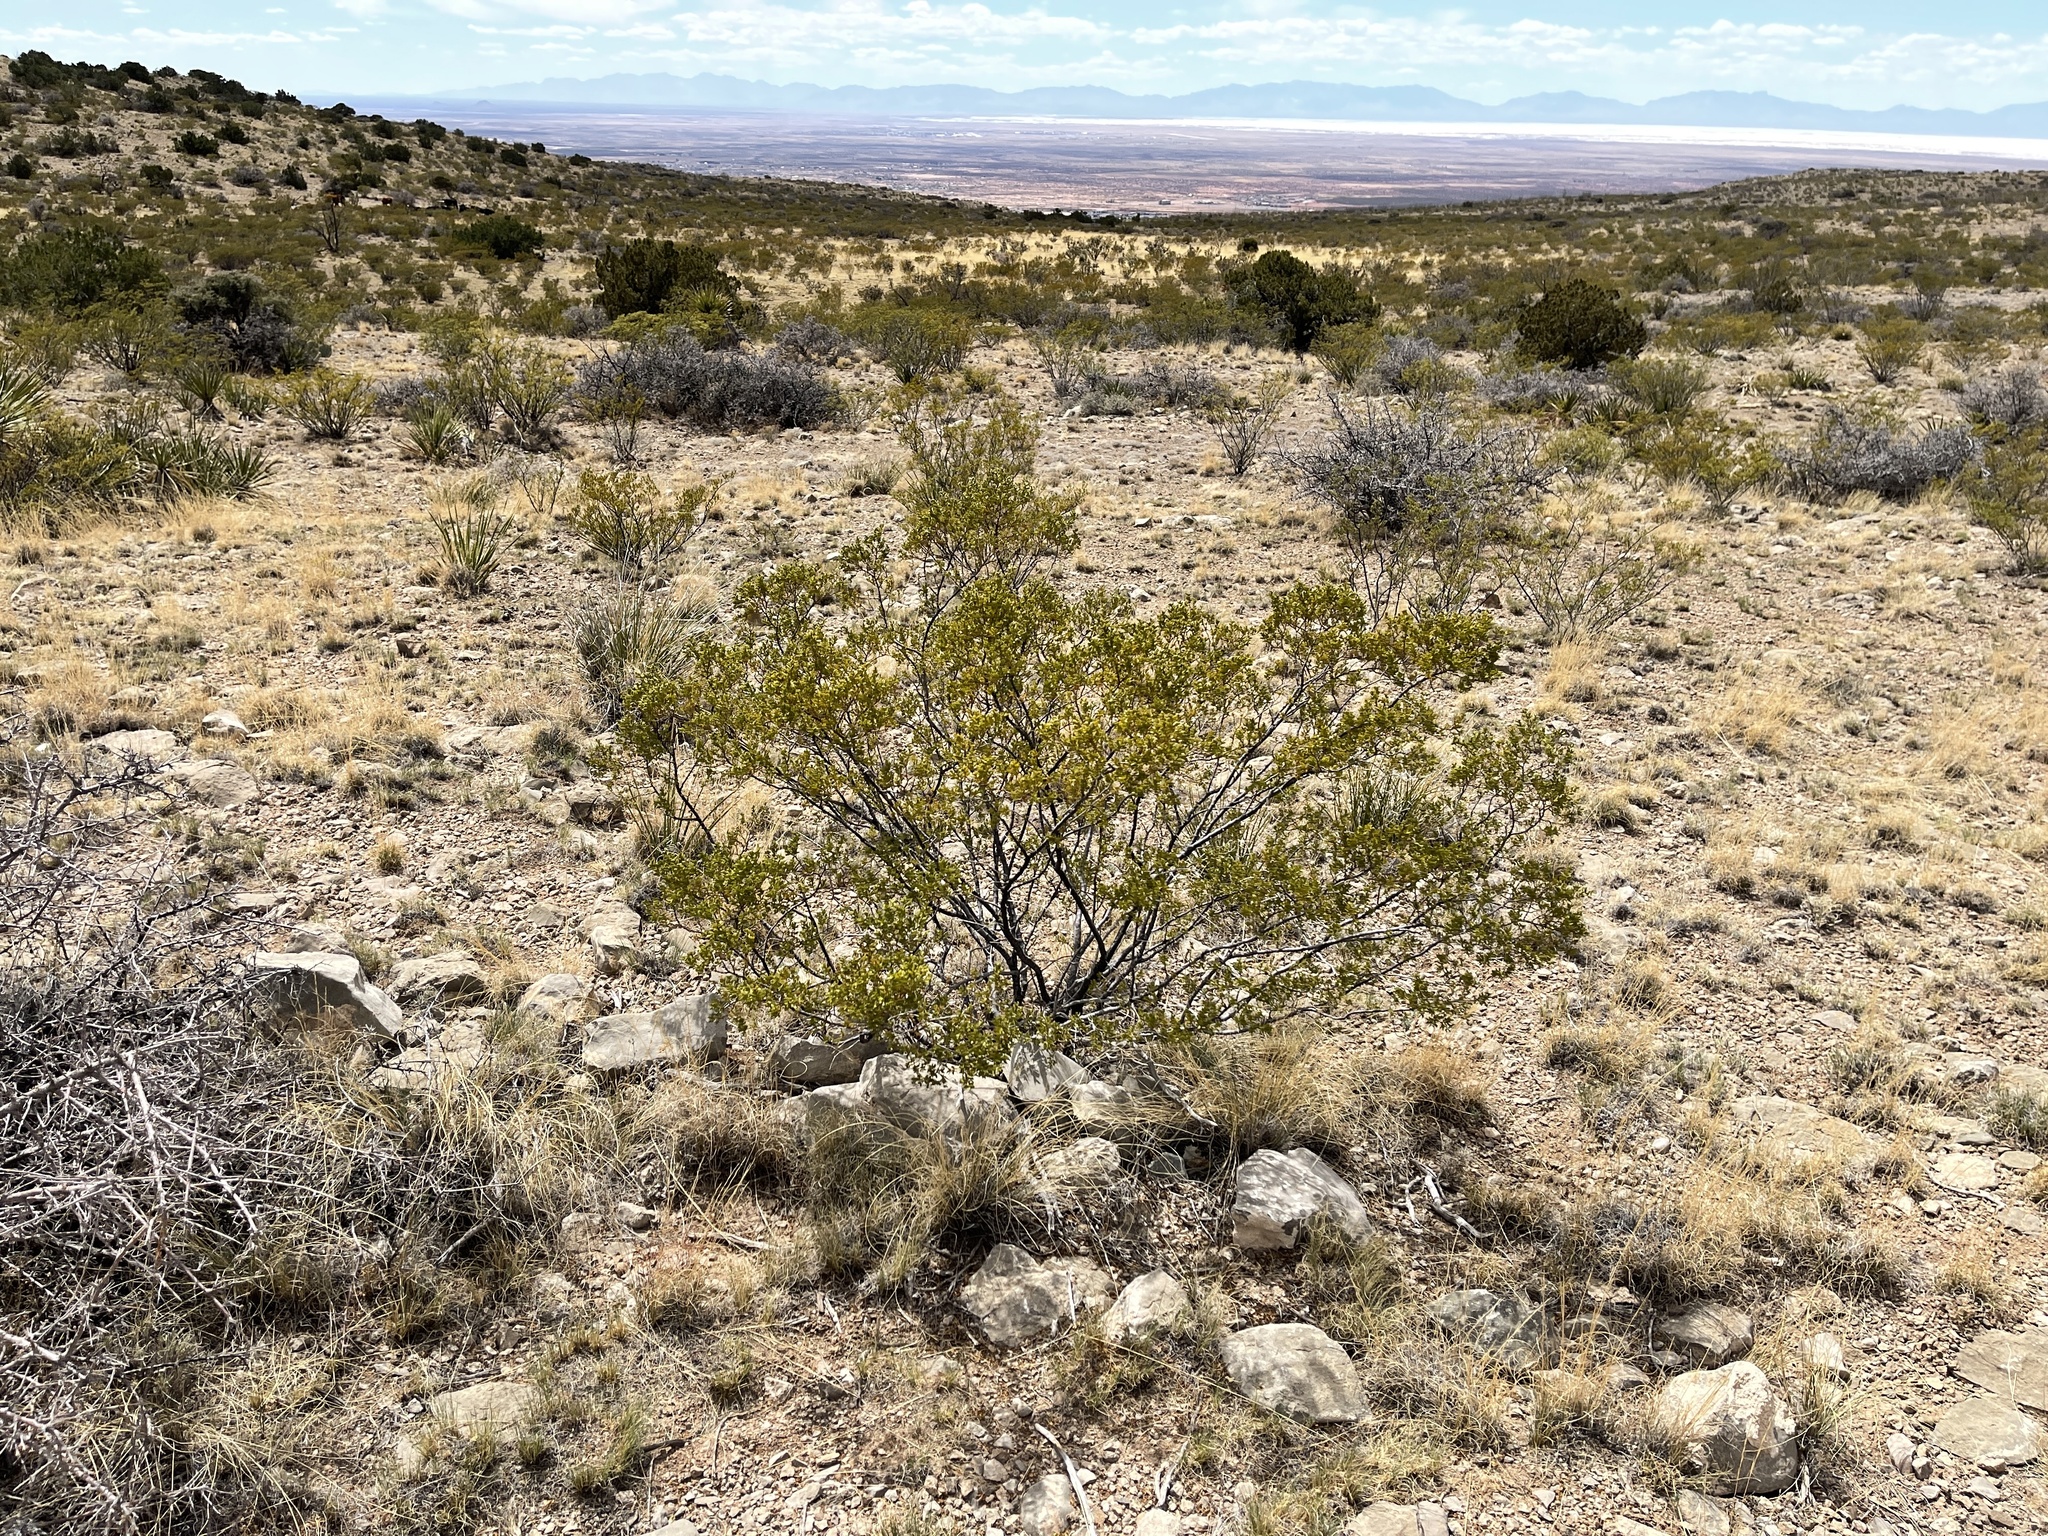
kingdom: Plantae
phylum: Tracheophyta
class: Magnoliopsida
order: Zygophyllales
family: Zygophyllaceae
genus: Larrea
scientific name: Larrea tridentata
